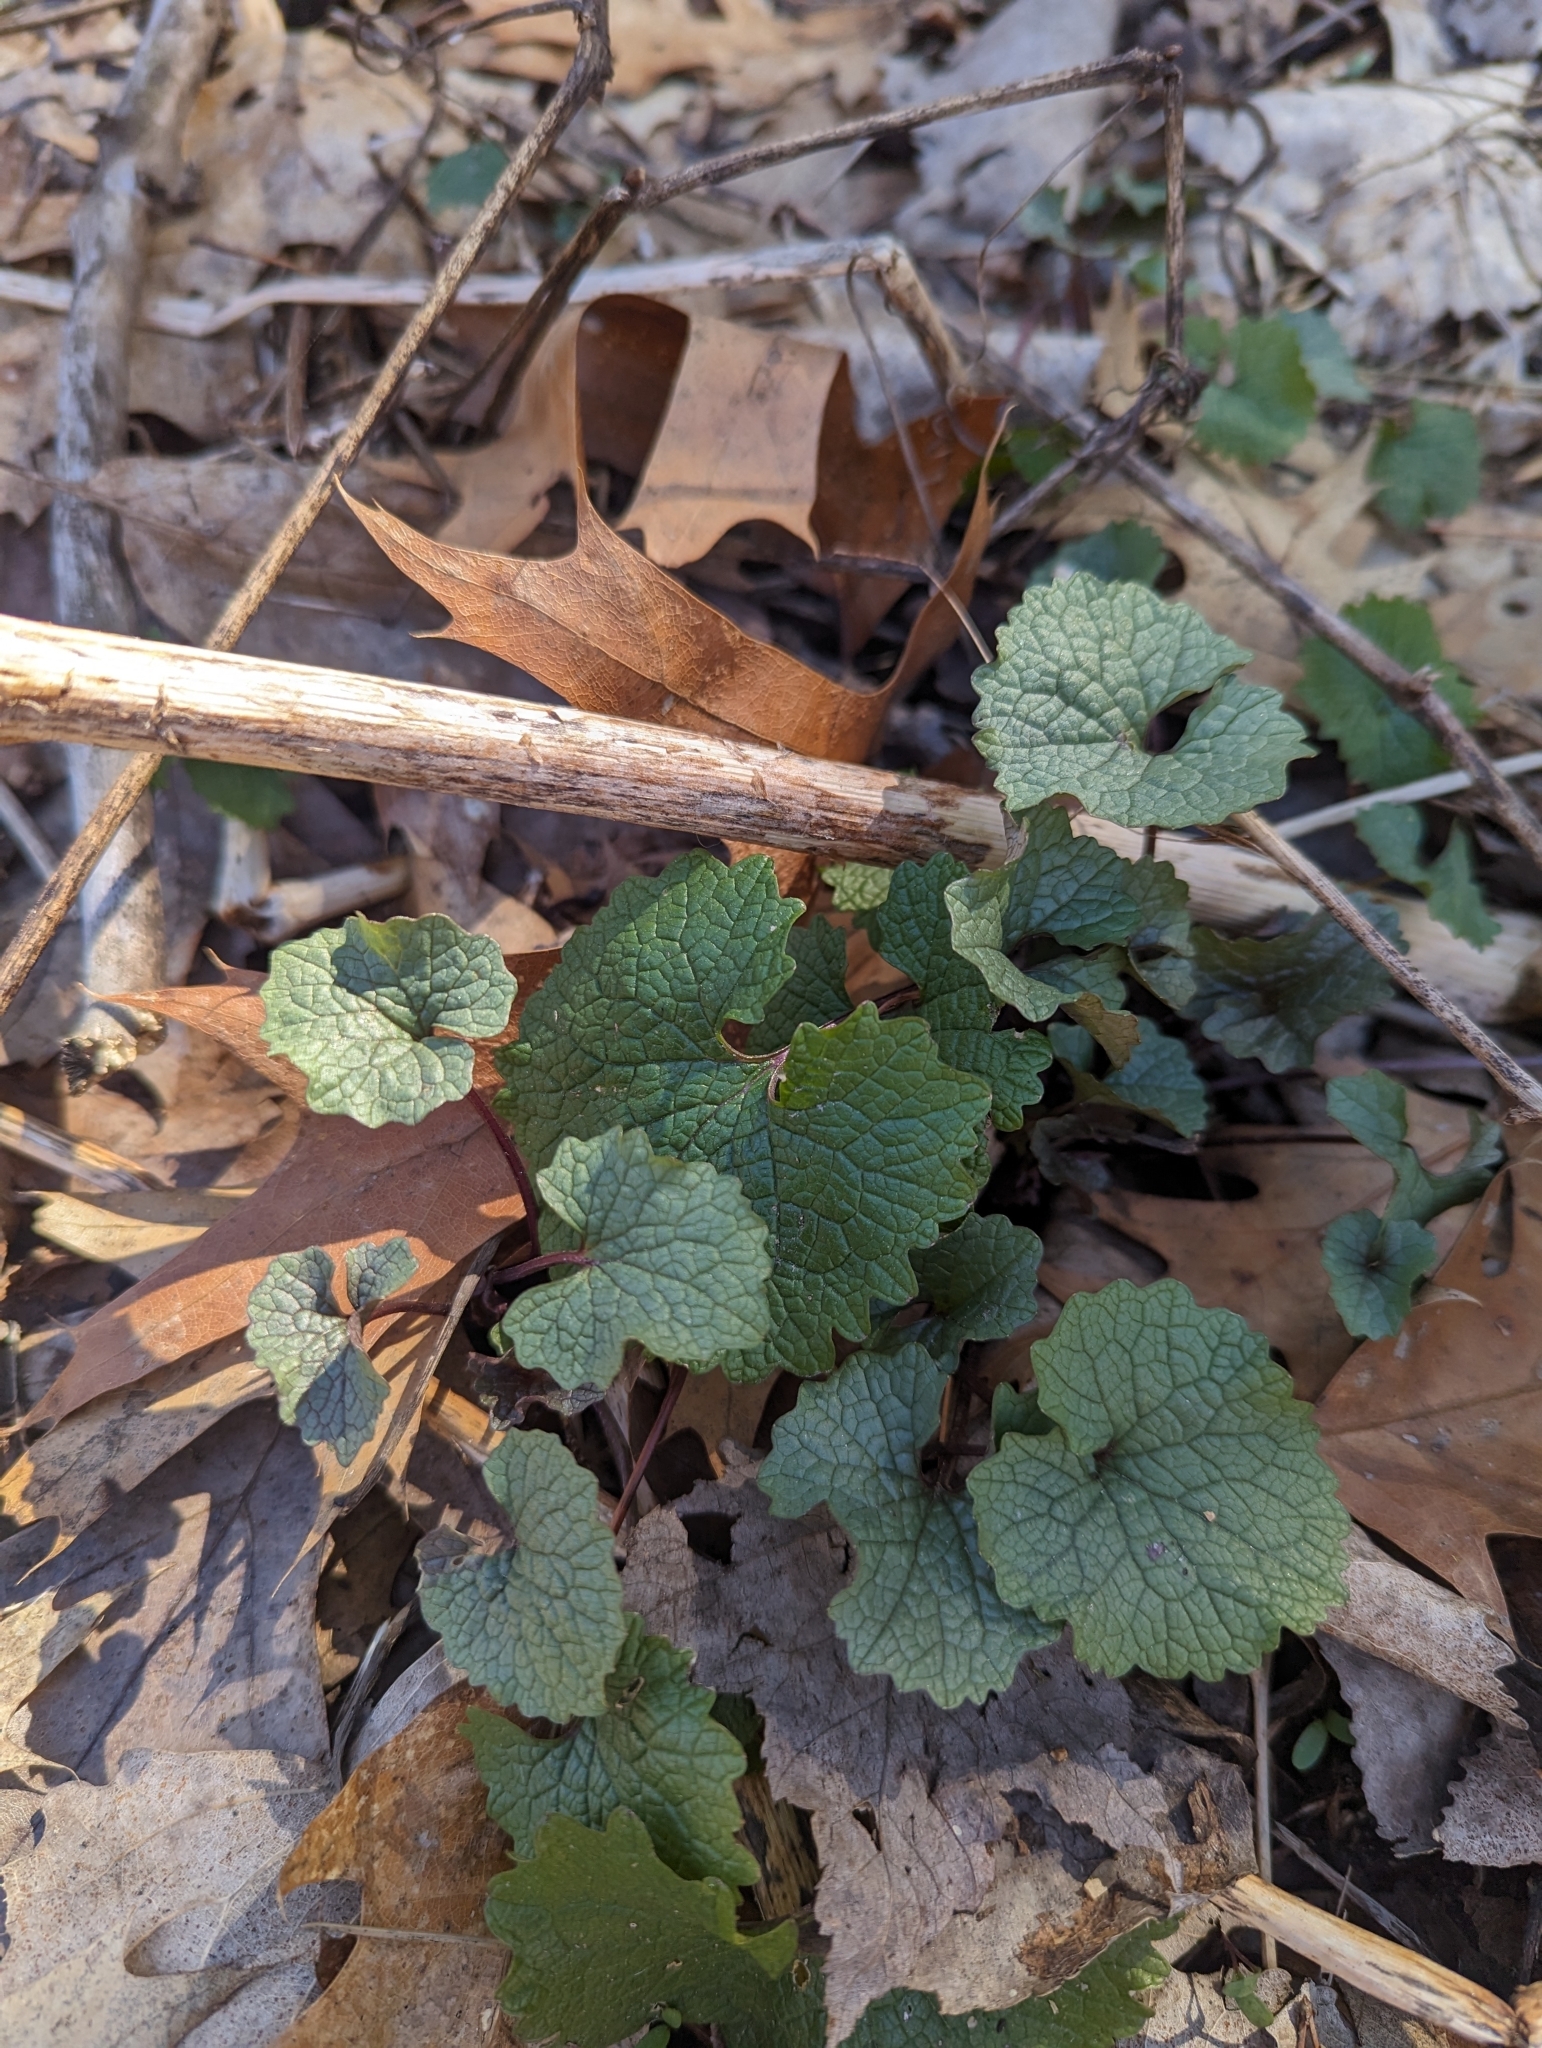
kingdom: Plantae
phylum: Tracheophyta
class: Magnoliopsida
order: Brassicales
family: Brassicaceae
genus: Alliaria
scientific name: Alliaria petiolata
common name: Garlic mustard
